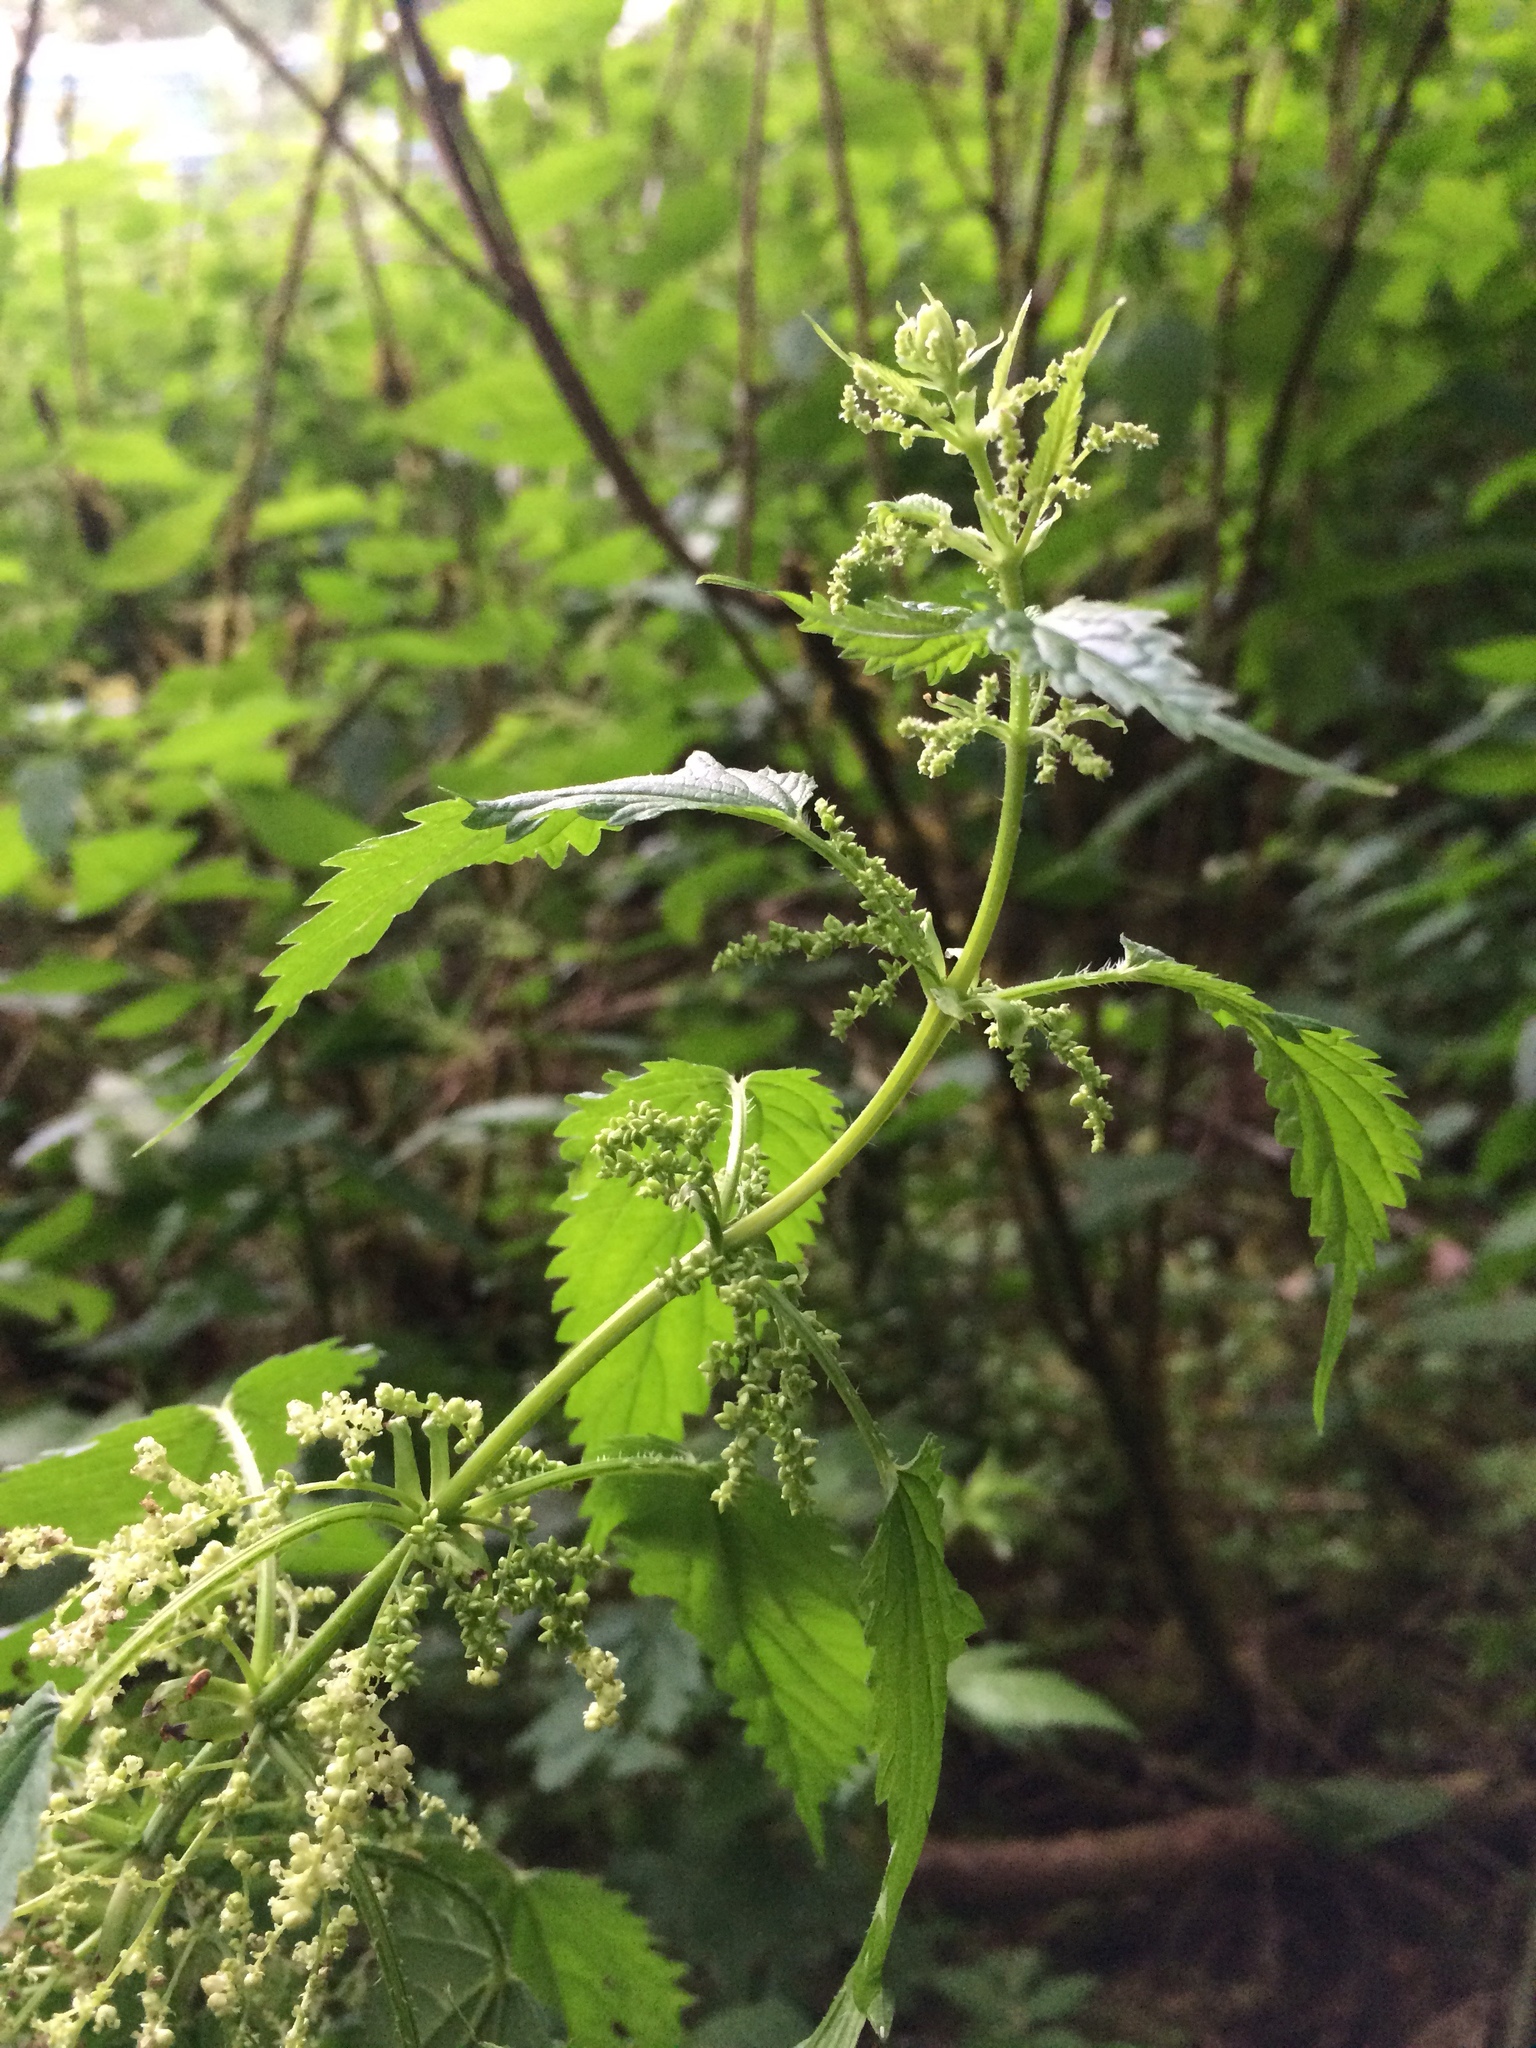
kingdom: Plantae
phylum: Tracheophyta
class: Magnoliopsida
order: Rosales
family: Urticaceae
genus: Urtica
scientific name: Urtica dioica
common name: Common nettle
